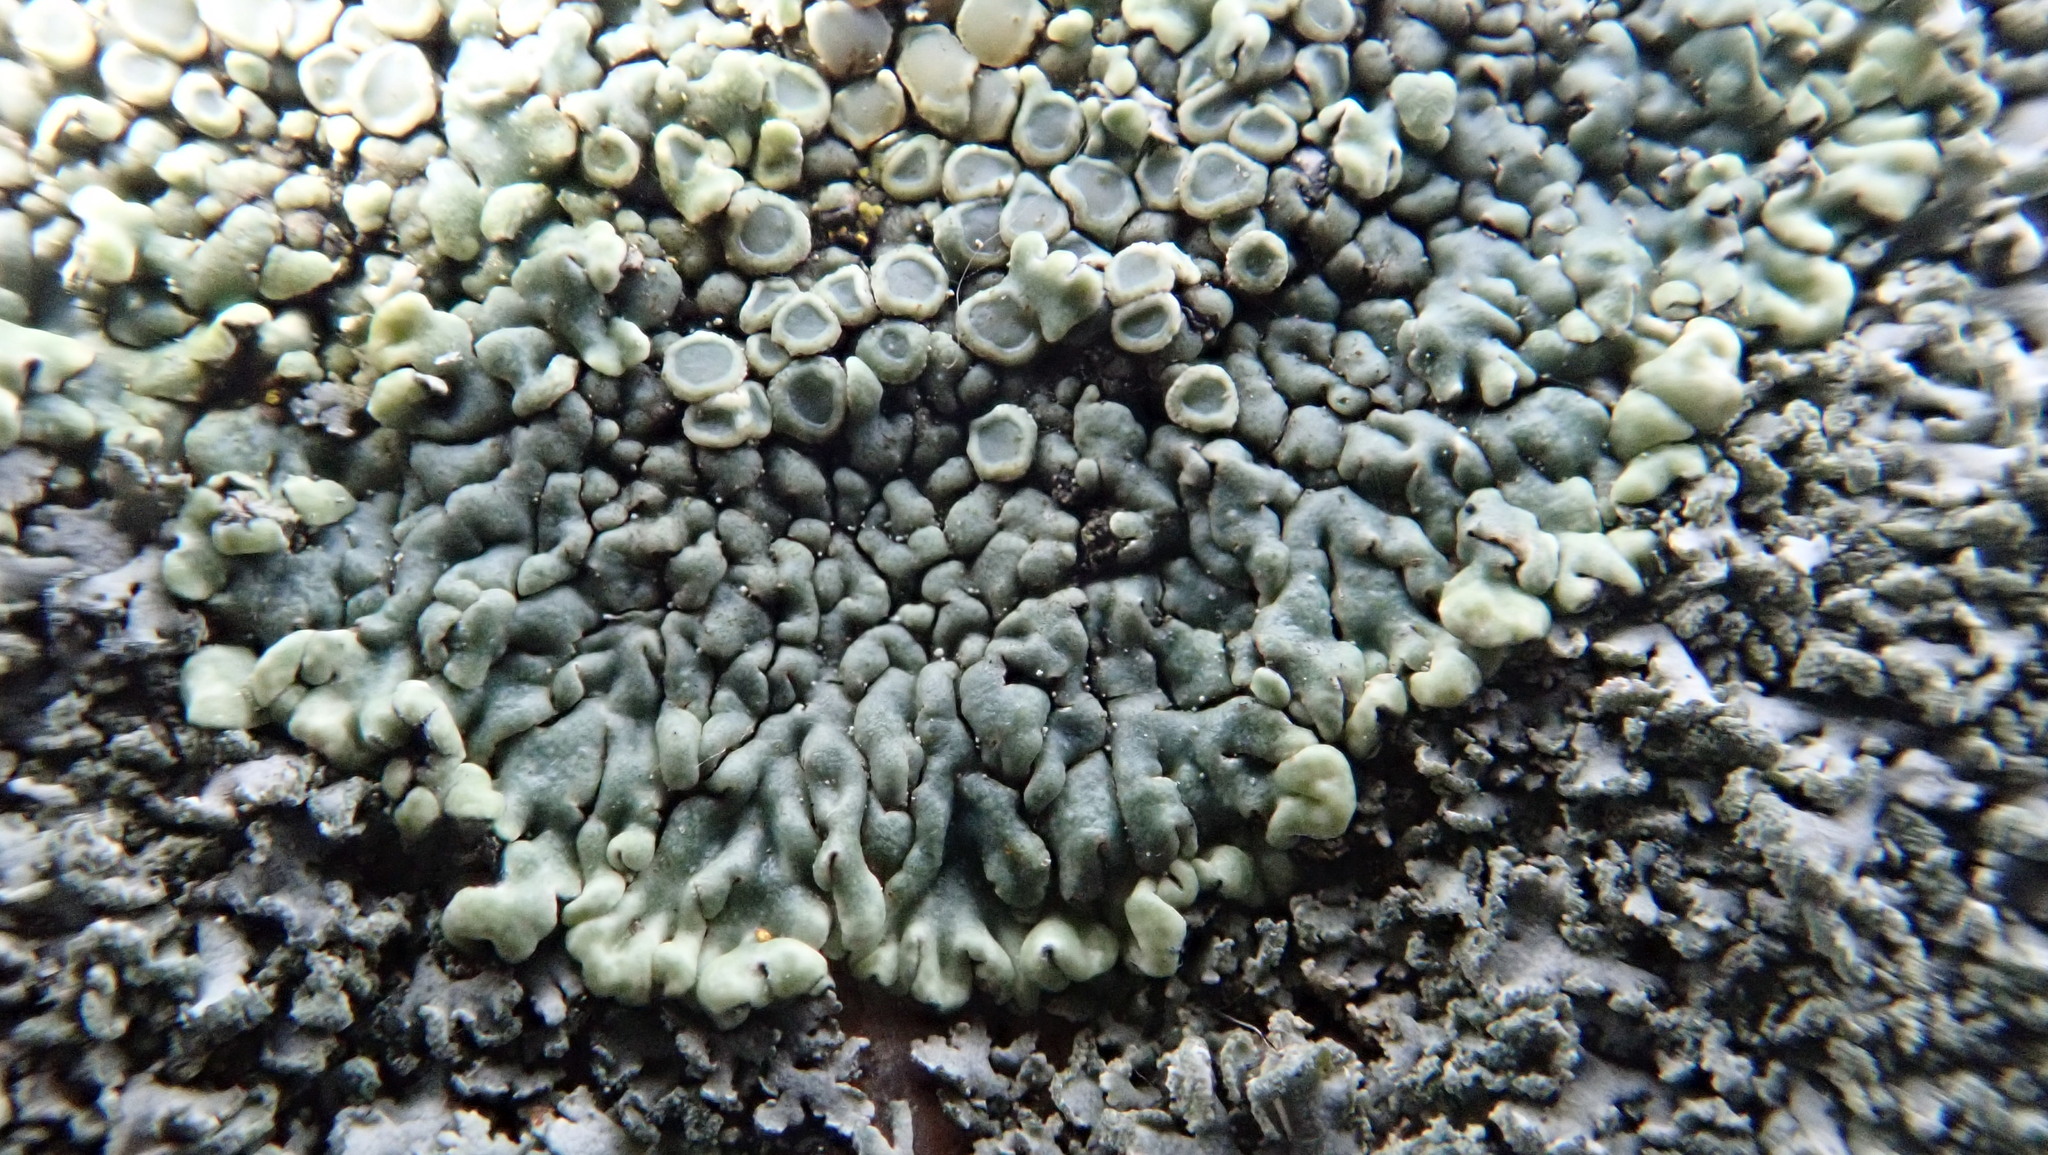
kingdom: Fungi
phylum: Ascomycota
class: Lecanoromycetes
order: Lecanorales
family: Lecanoraceae
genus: Protoparmeliopsis
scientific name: Protoparmeliopsis muralis
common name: Stonewall rim lichen
